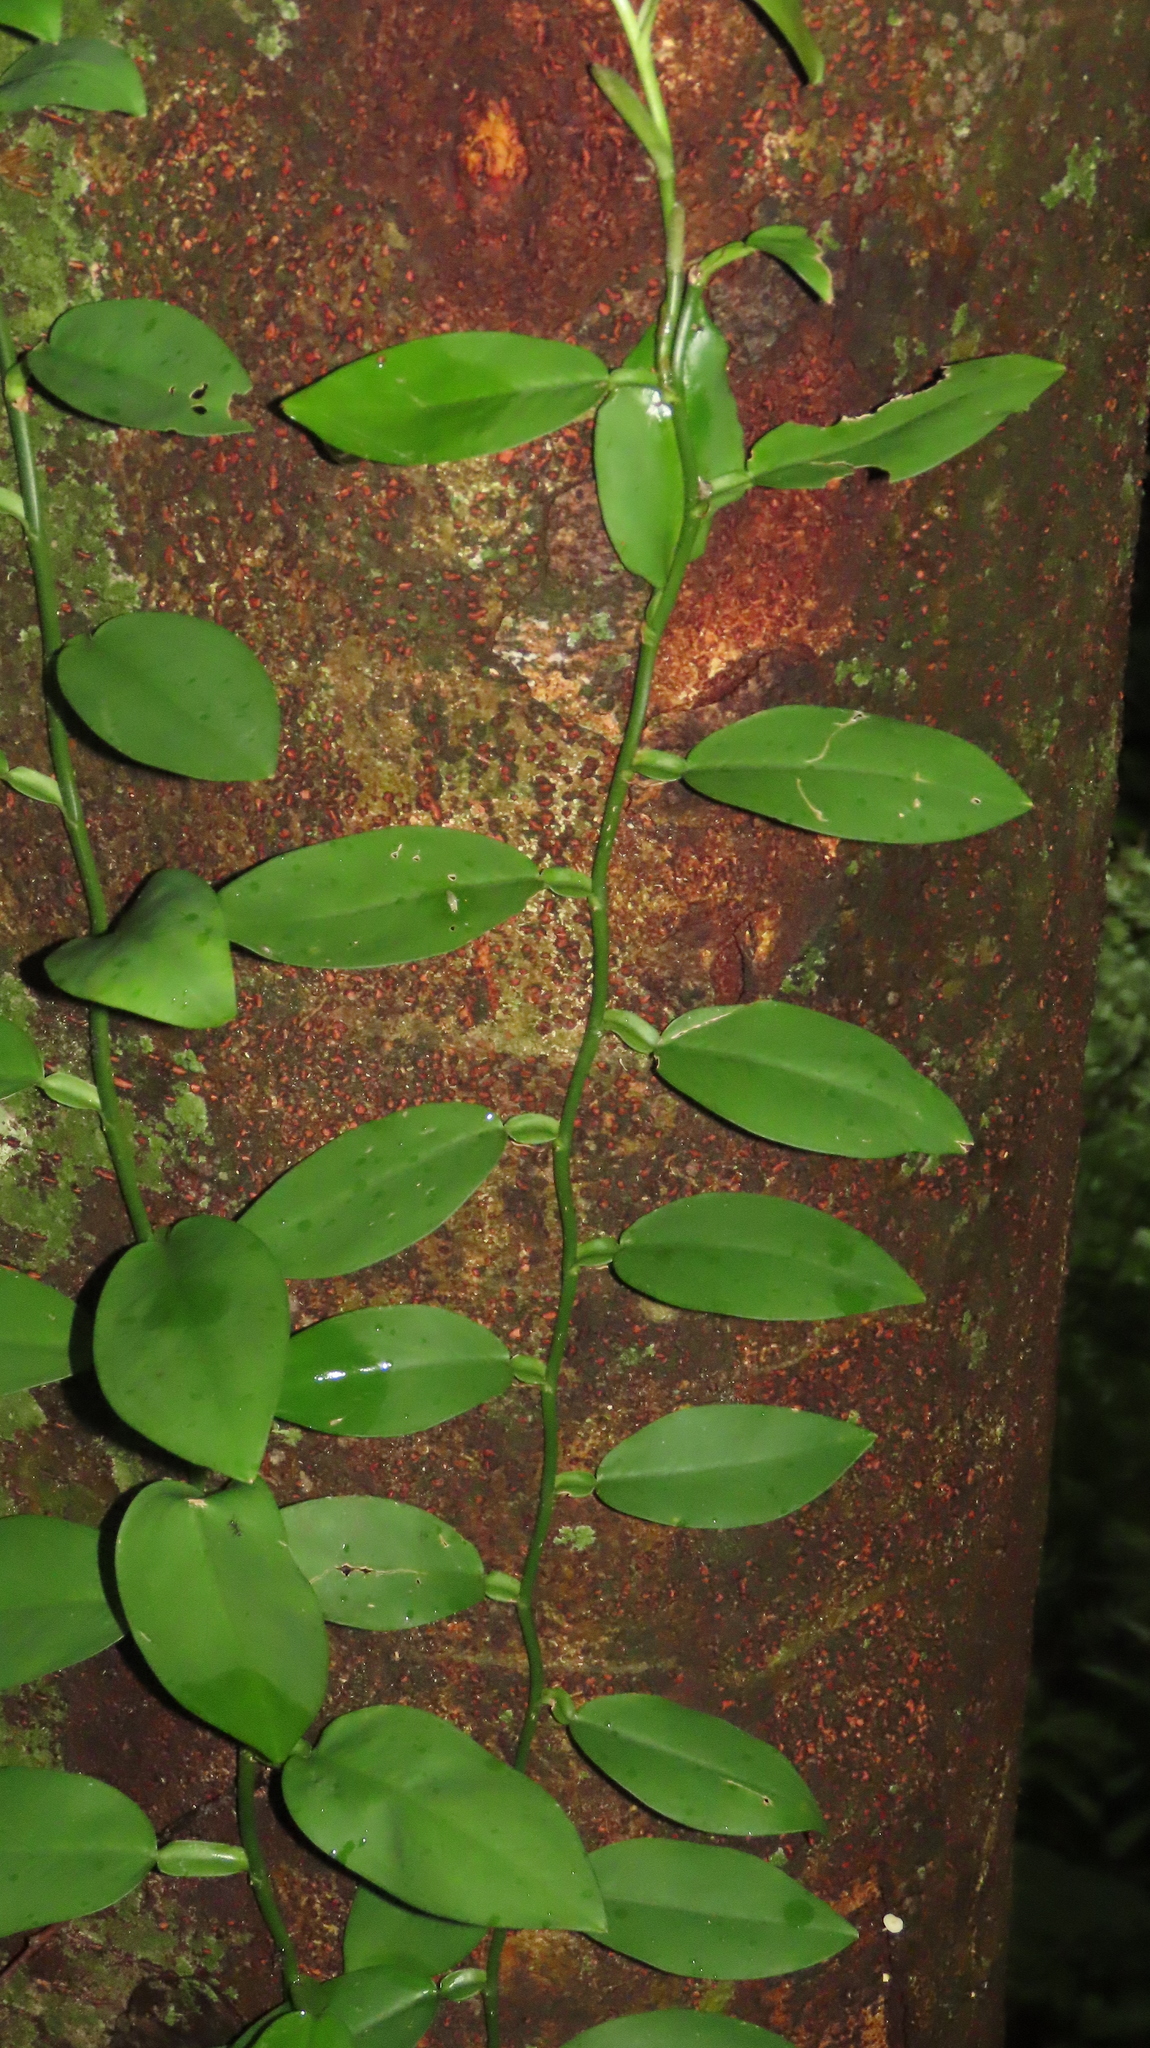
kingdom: Plantae
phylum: Tracheophyta
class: Liliopsida
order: Alismatales
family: Araceae
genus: Pothos
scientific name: Pothos chinensis
